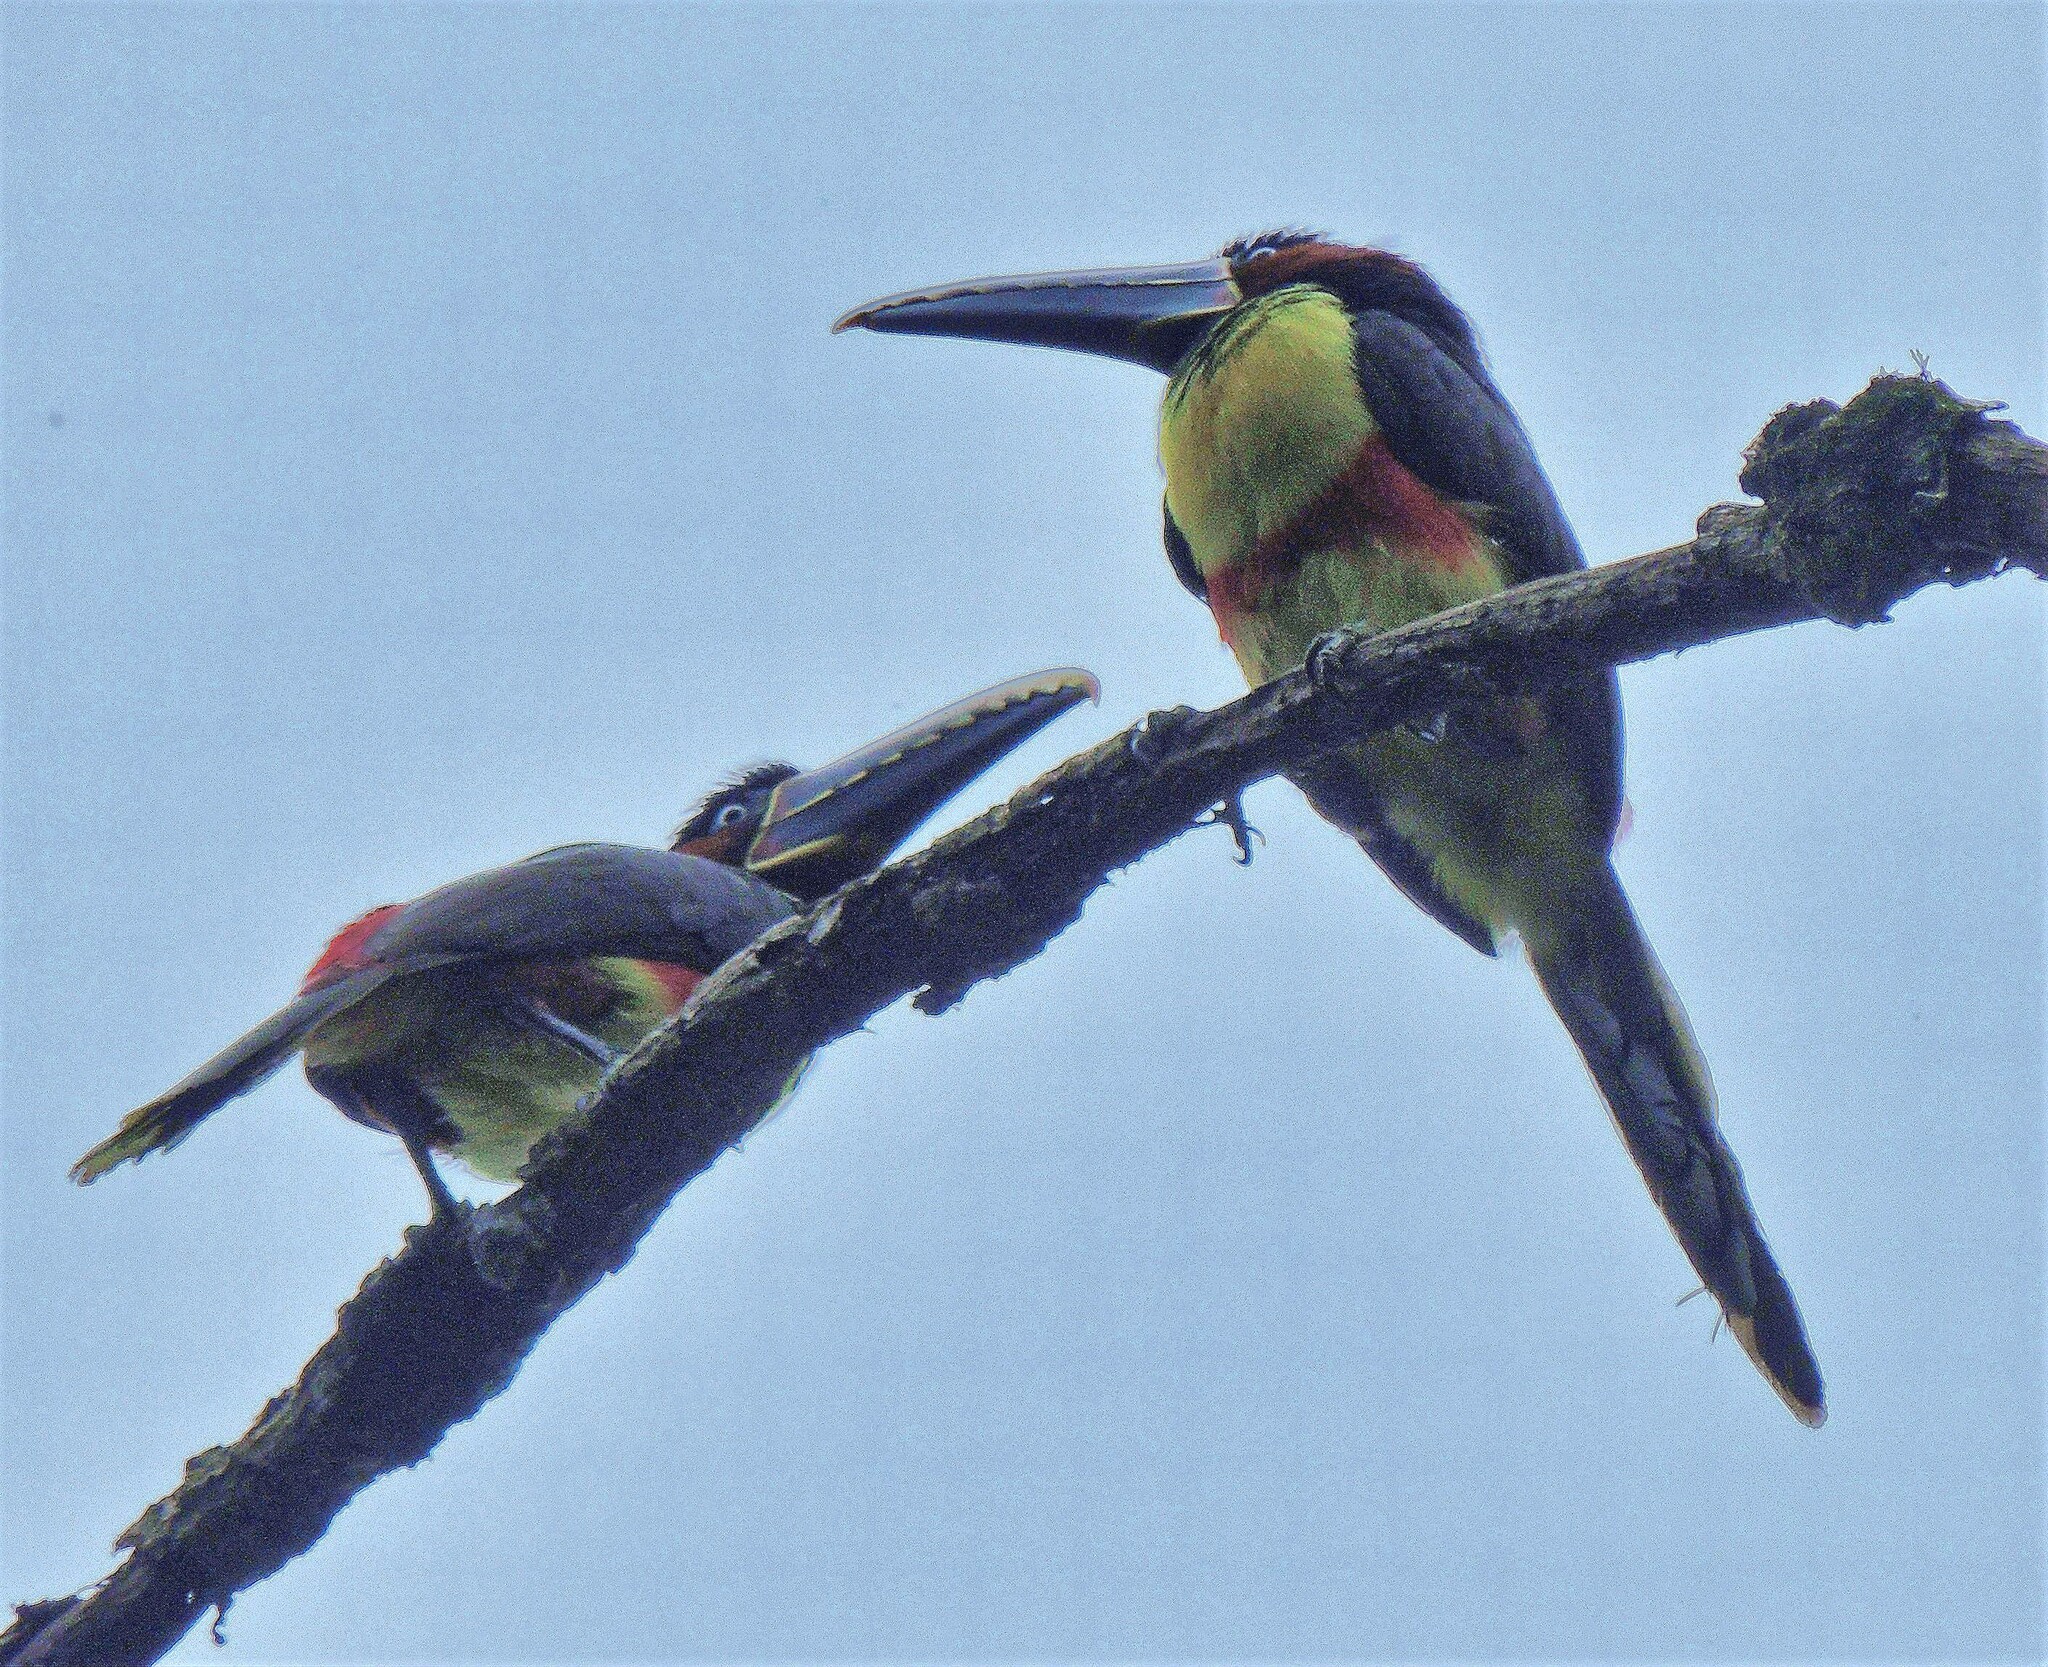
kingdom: Animalia
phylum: Chordata
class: Aves
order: Piciformes
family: Ramphastidae
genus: Pteroglossus
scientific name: Pteroglossus castanotis
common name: Chestnut-eared aracari
